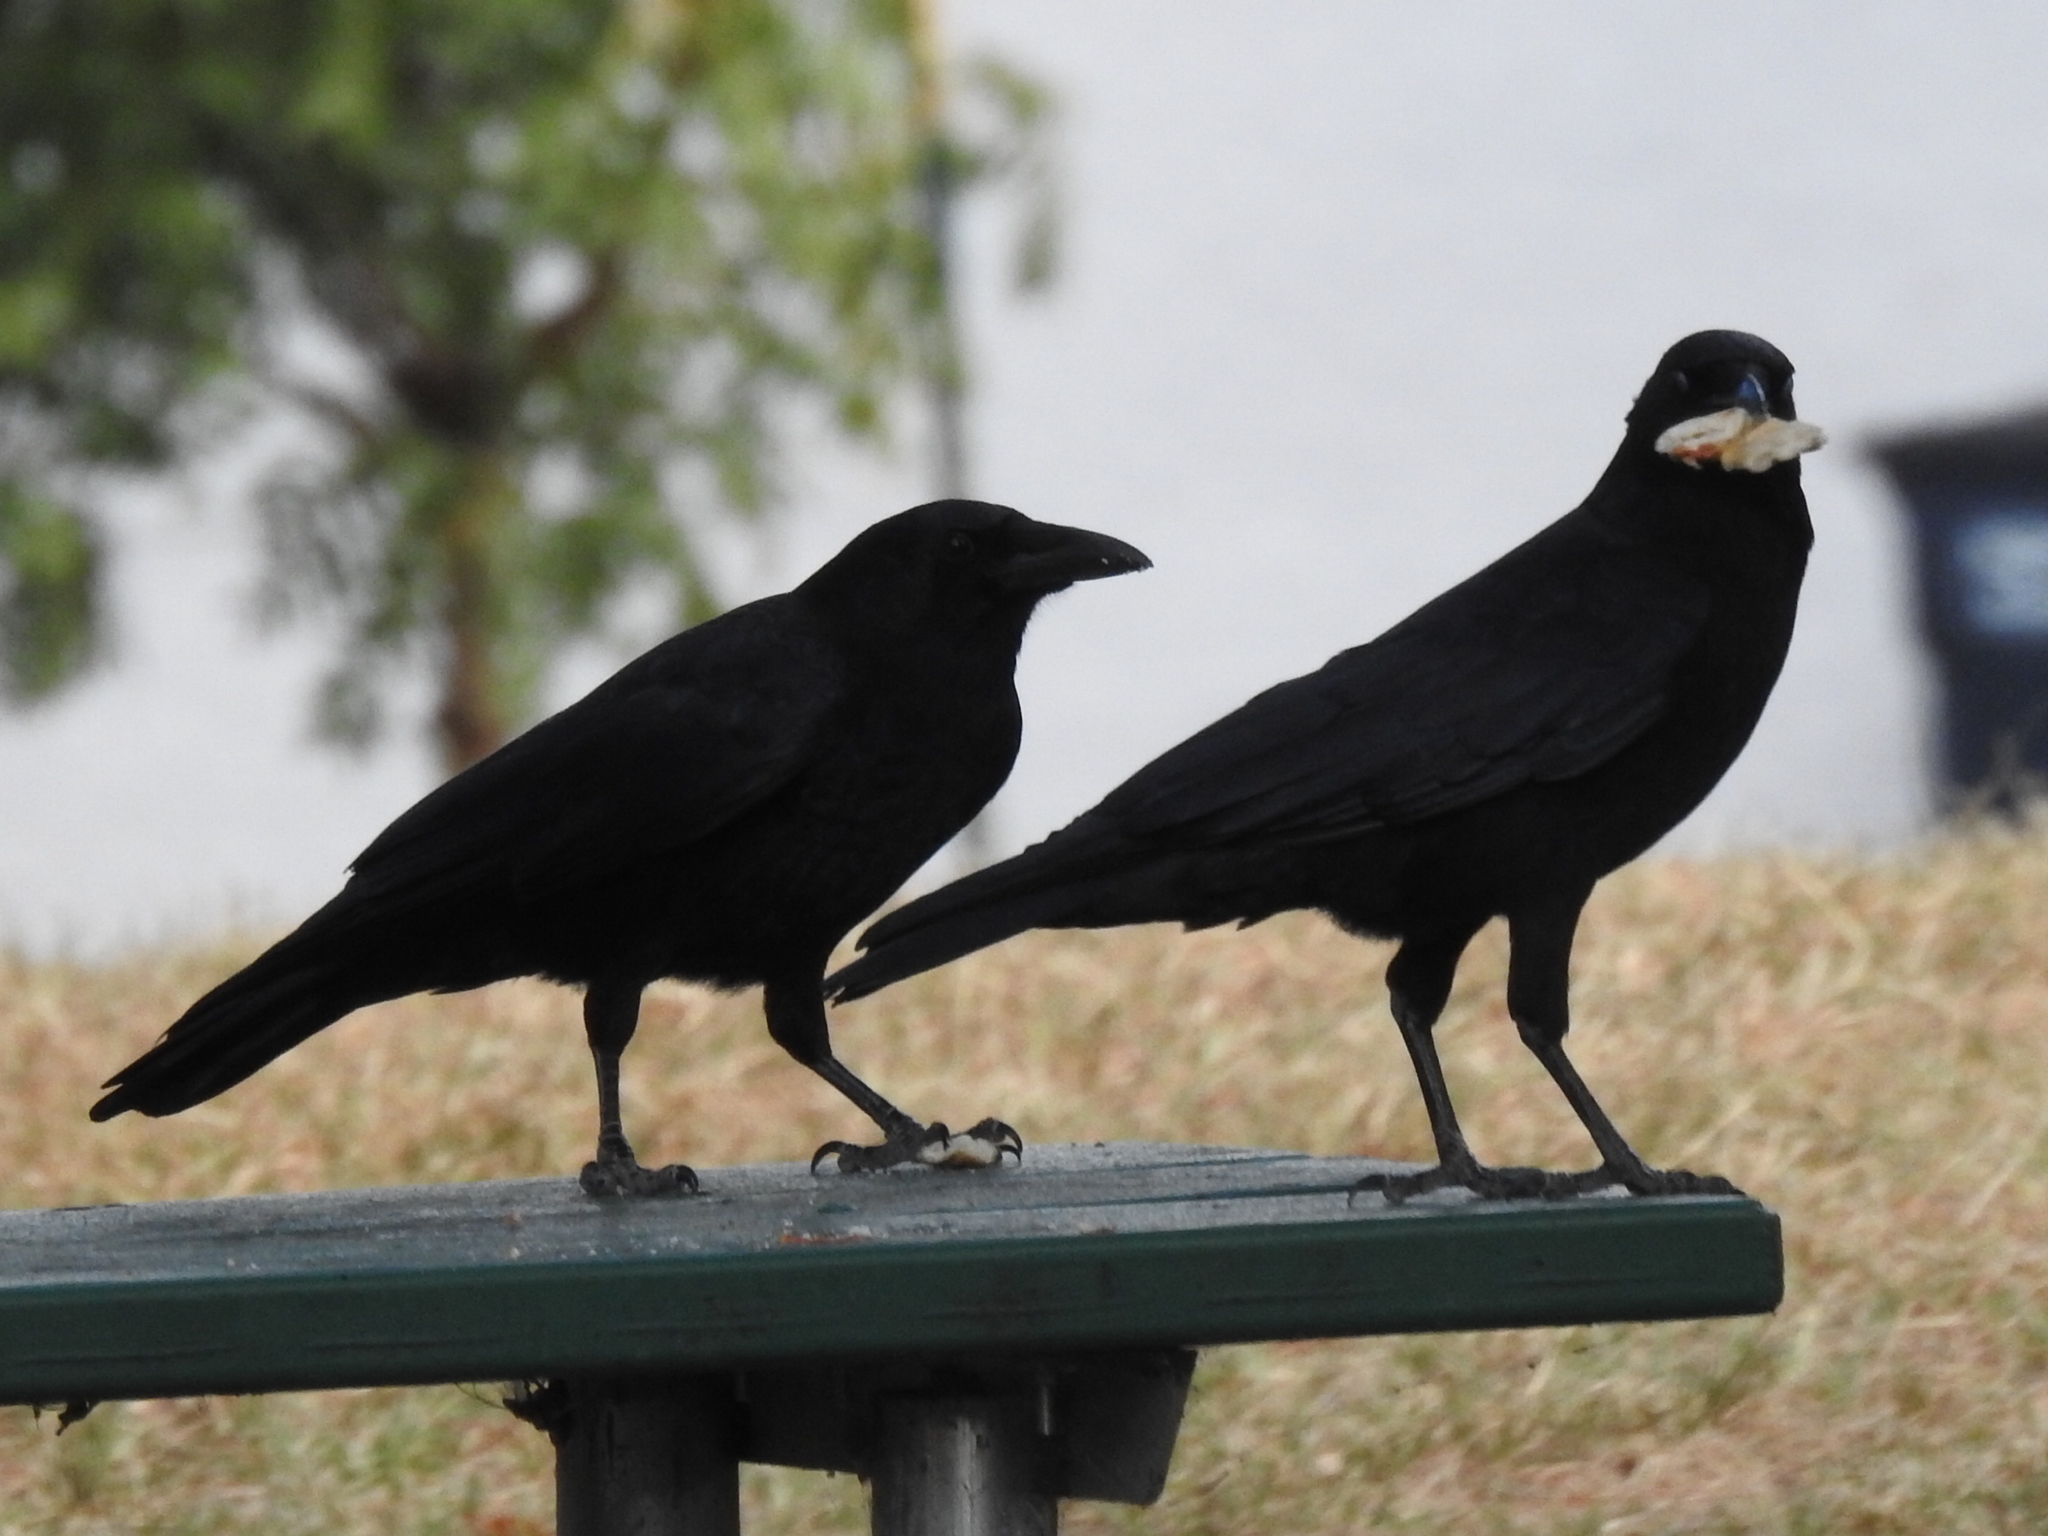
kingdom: Animalia
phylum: Chordata
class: Aves
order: Passeriformes
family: Corvidae
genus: Corvus
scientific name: Corvus brachyrhynchos
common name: American crow
